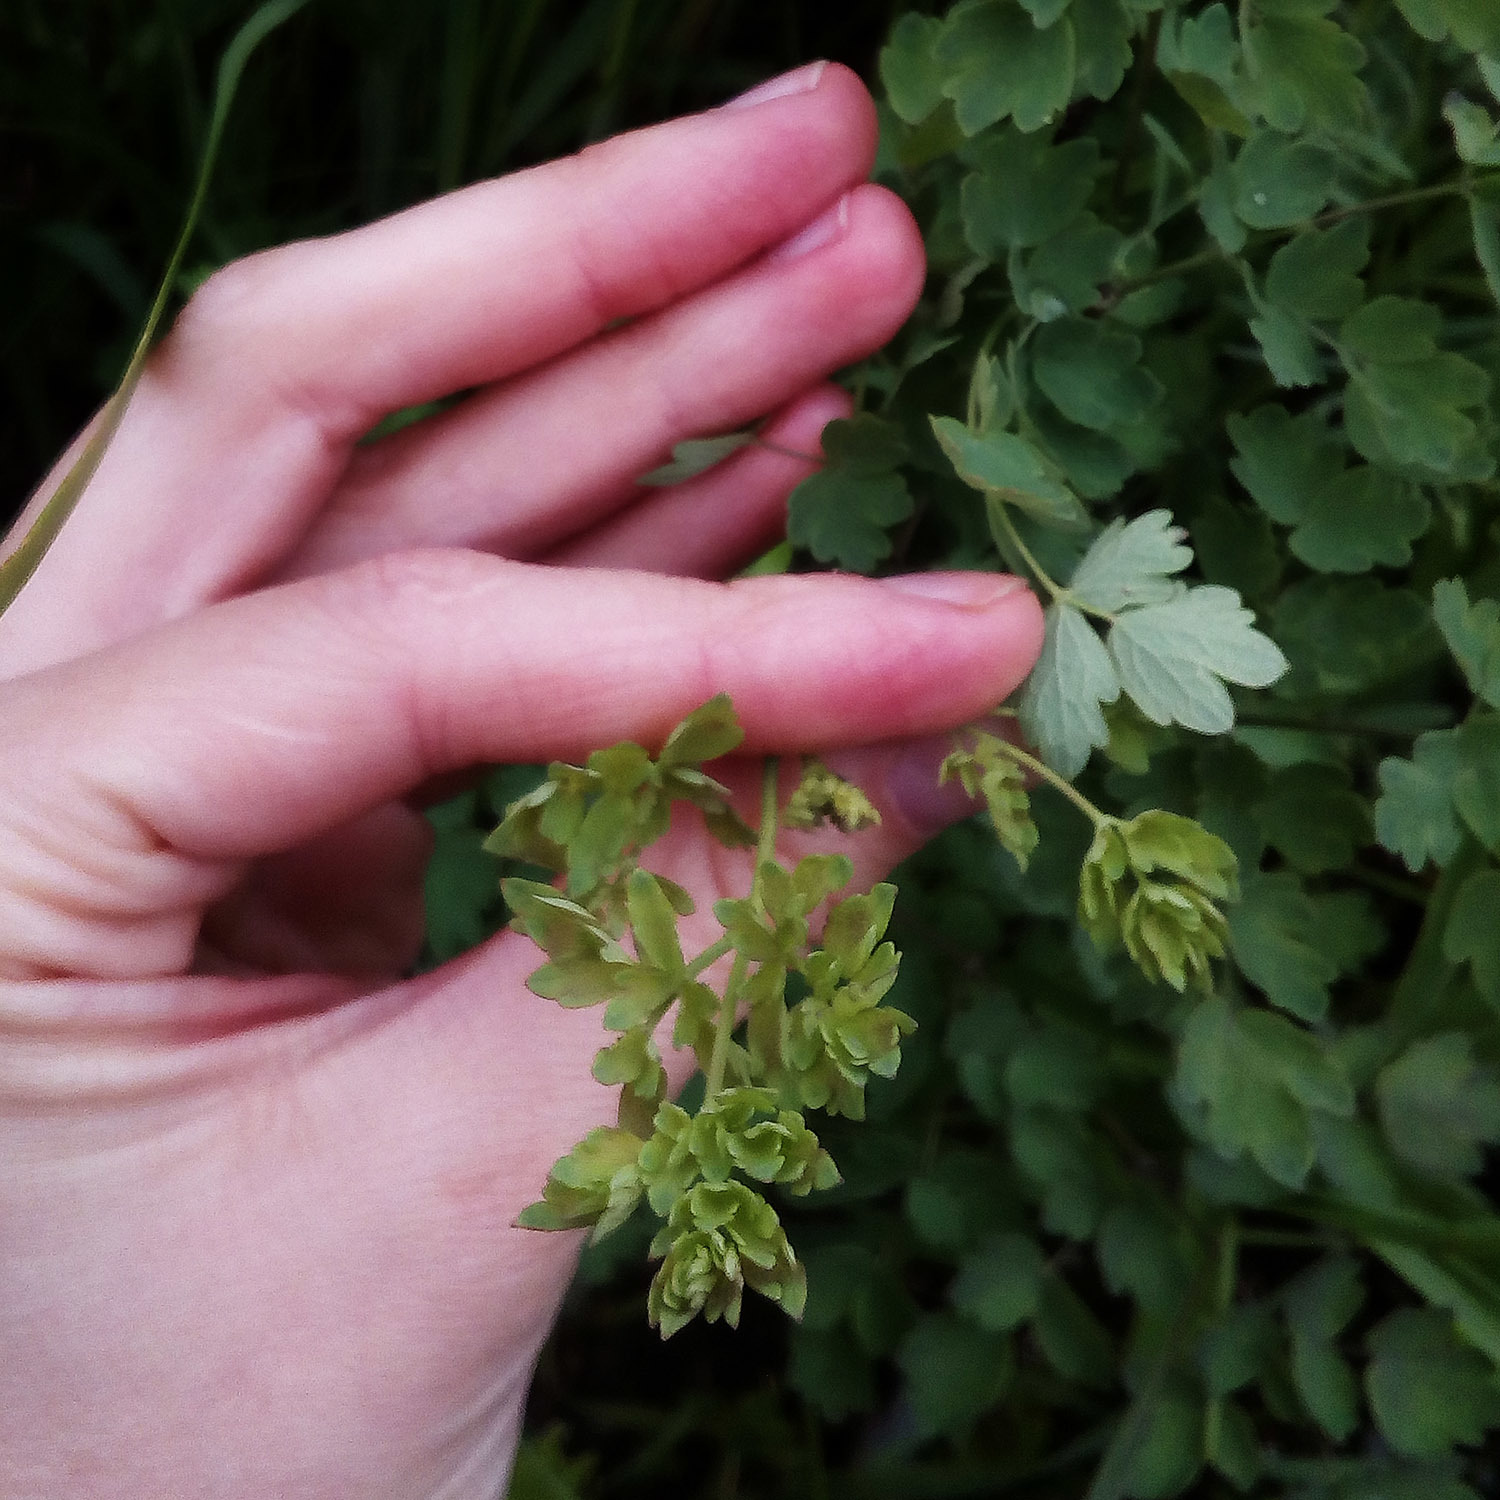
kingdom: Plantae
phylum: Tracheophyta
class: Magnoliopsida
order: Ranunculales
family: Ranunculaceae
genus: Thalictrum
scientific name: Thalictrum minus
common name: Lesser meadow-rue
